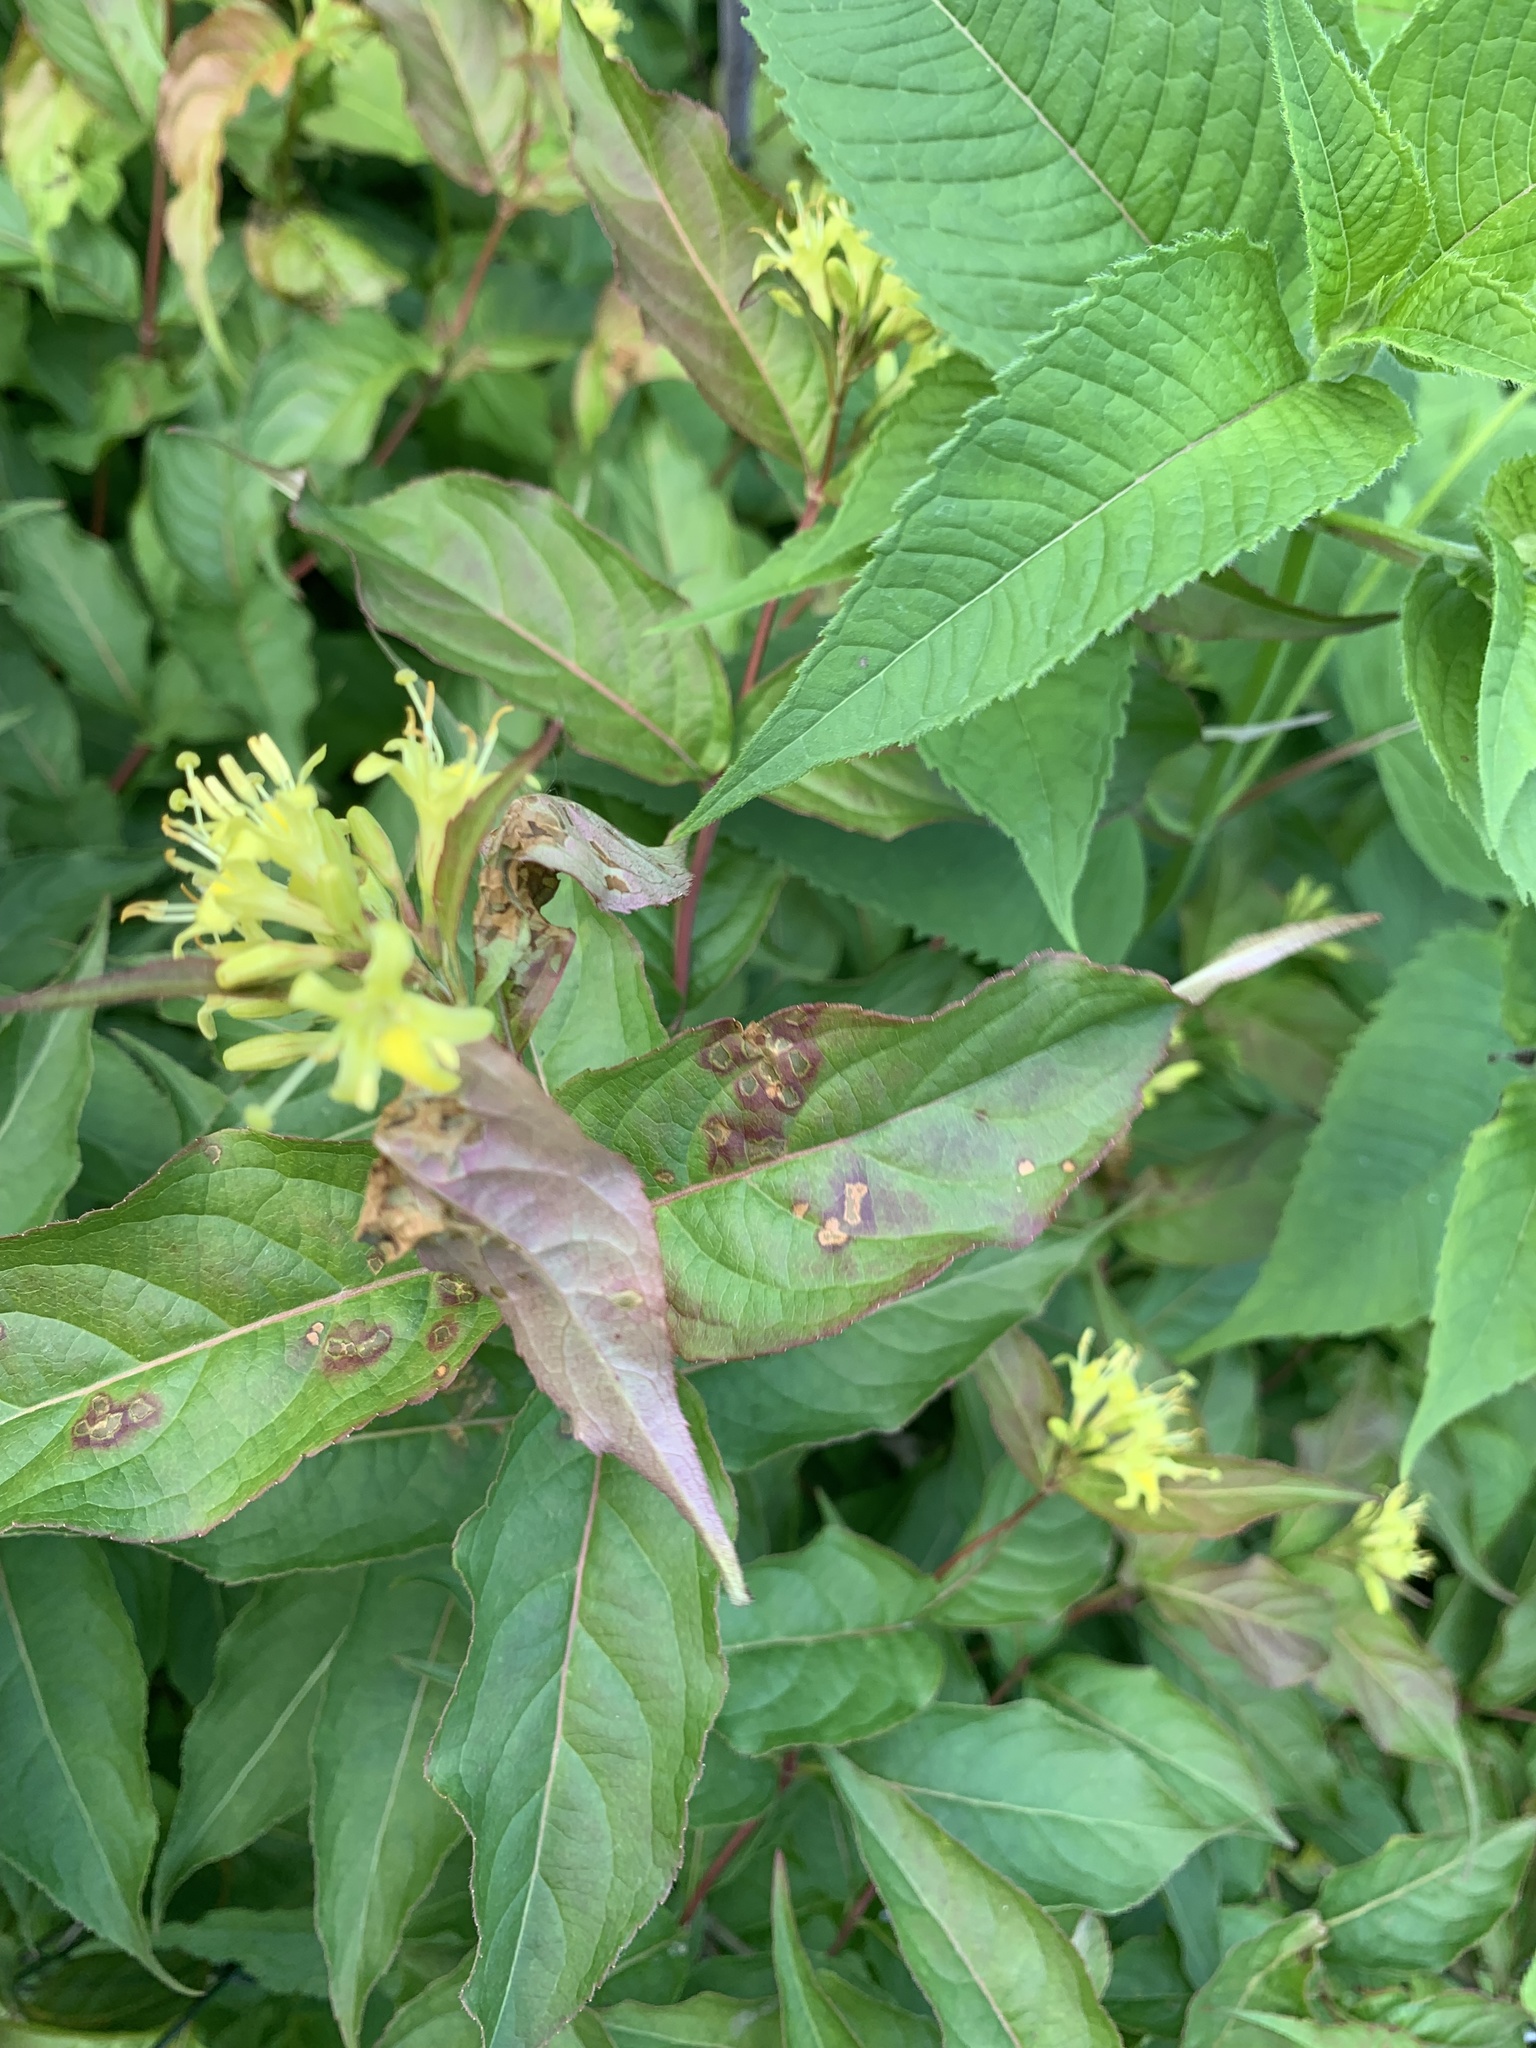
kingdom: Plantae
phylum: Tracheophyta
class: Magnoliopsida
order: Dipsacales
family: Caprifoliaceae
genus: Diervilla
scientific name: Diervilla lonicera
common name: Bush-honeysuckle
